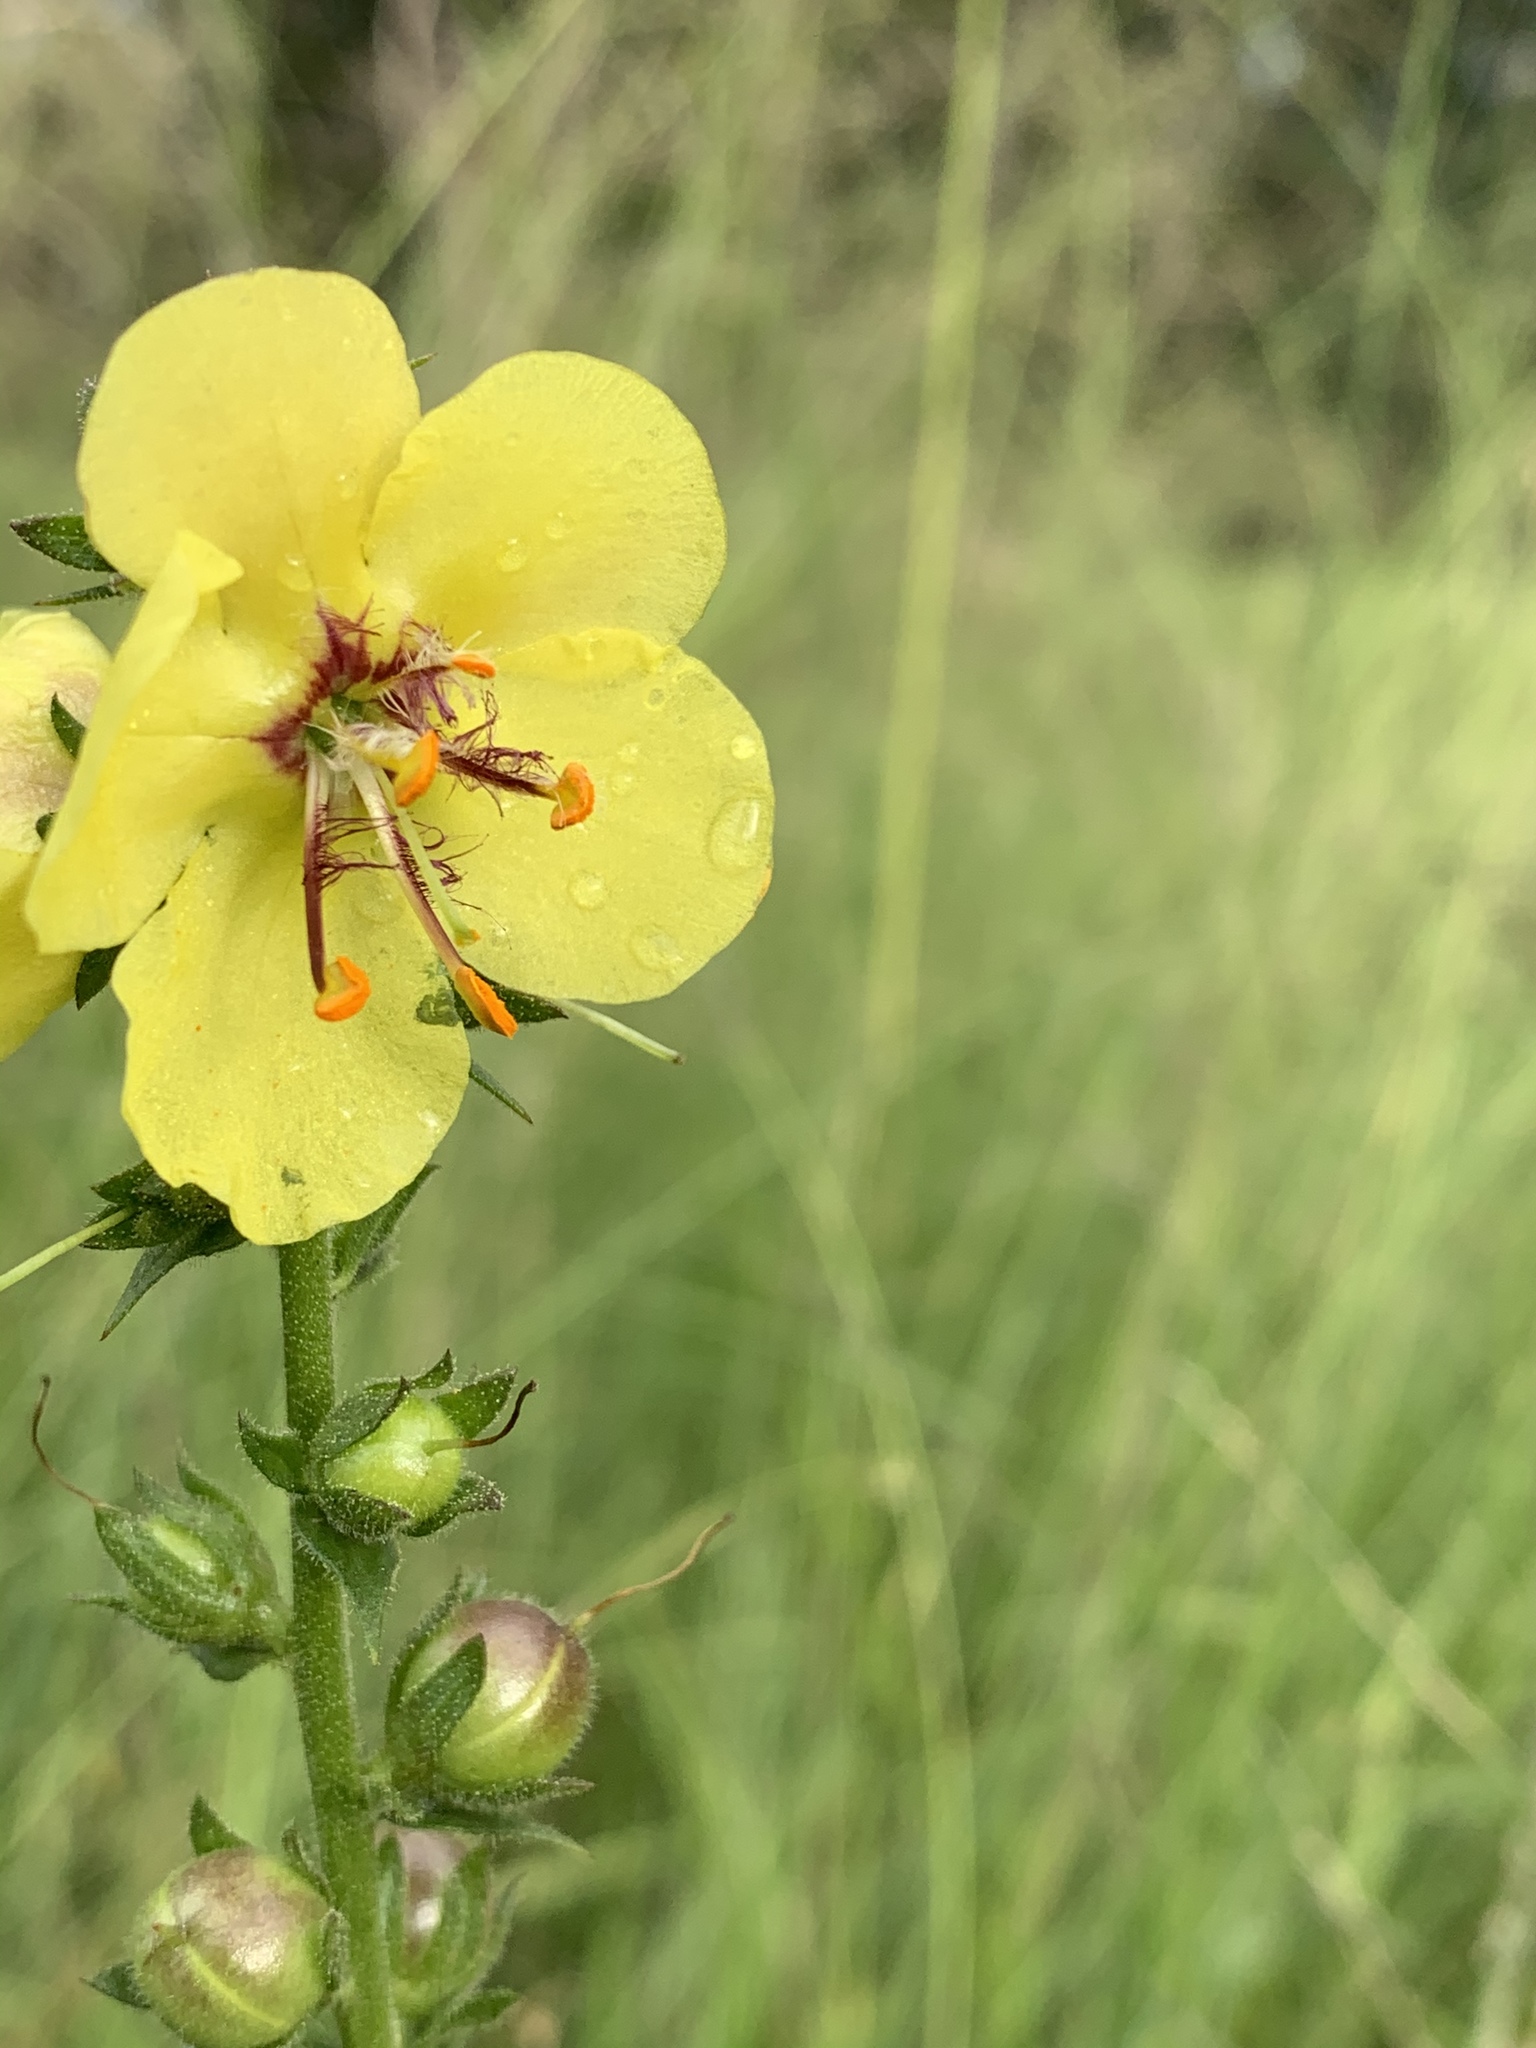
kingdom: Plantae
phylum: Tracheophyta
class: Magnoliopsida
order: Lamiales
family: Scrophulariaceae
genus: Verbascum
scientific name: Verbascum virgatum
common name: Twiggy mullein
